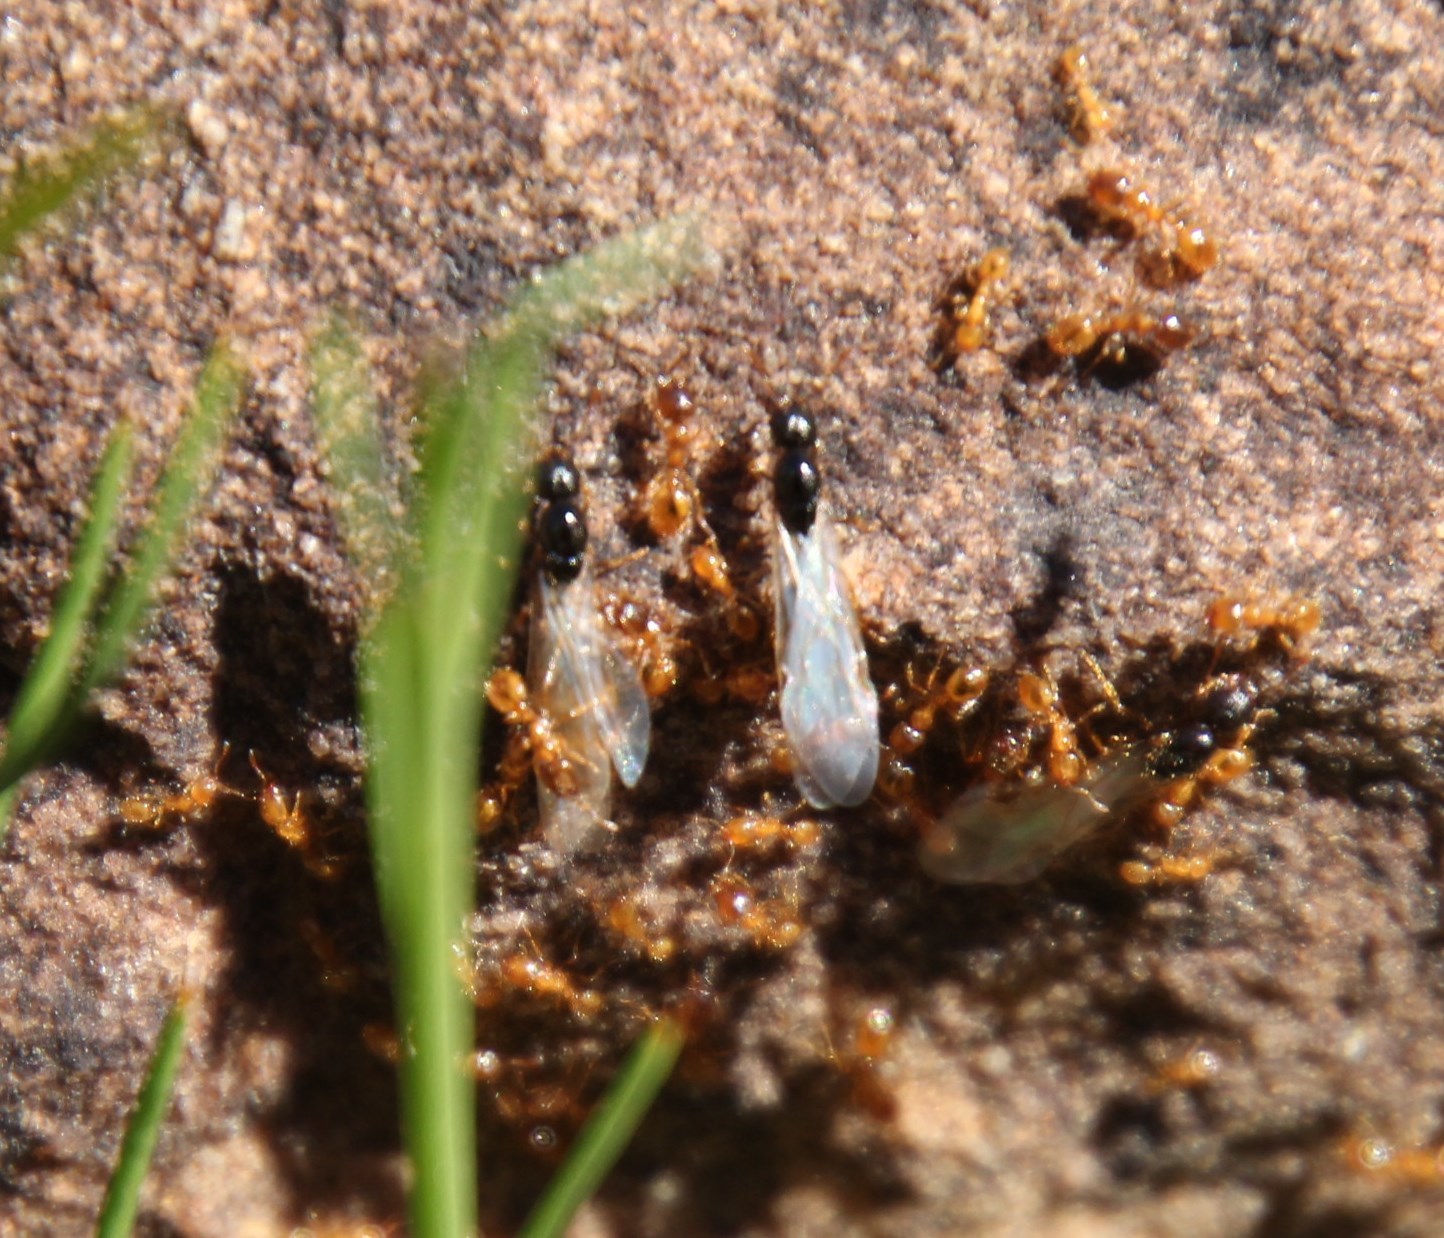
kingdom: Animalia
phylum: Arthropoda
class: Insecta
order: Hymenoptera
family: Formicidae
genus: Solenopsis
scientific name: Solenopsis punctaticeps
